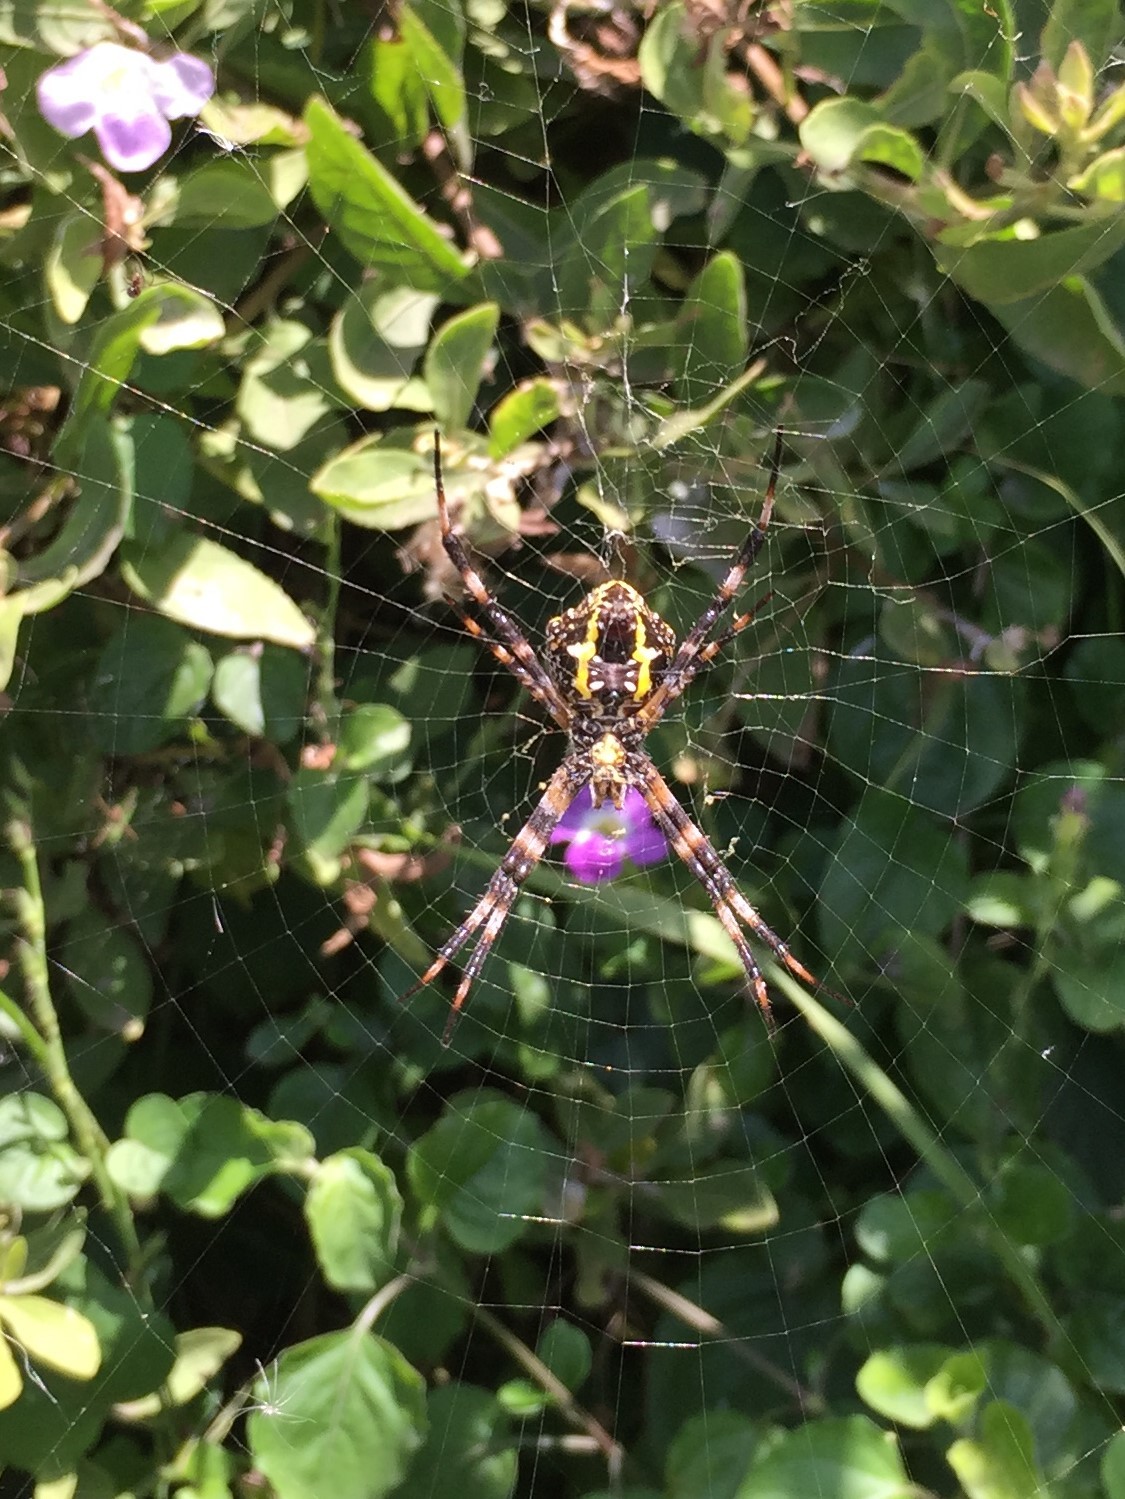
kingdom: Animalia
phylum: Arthropoda
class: Arachnida
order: Araneae
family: Araneidae
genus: Argiope
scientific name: Argiope appensa
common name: Garden spider
